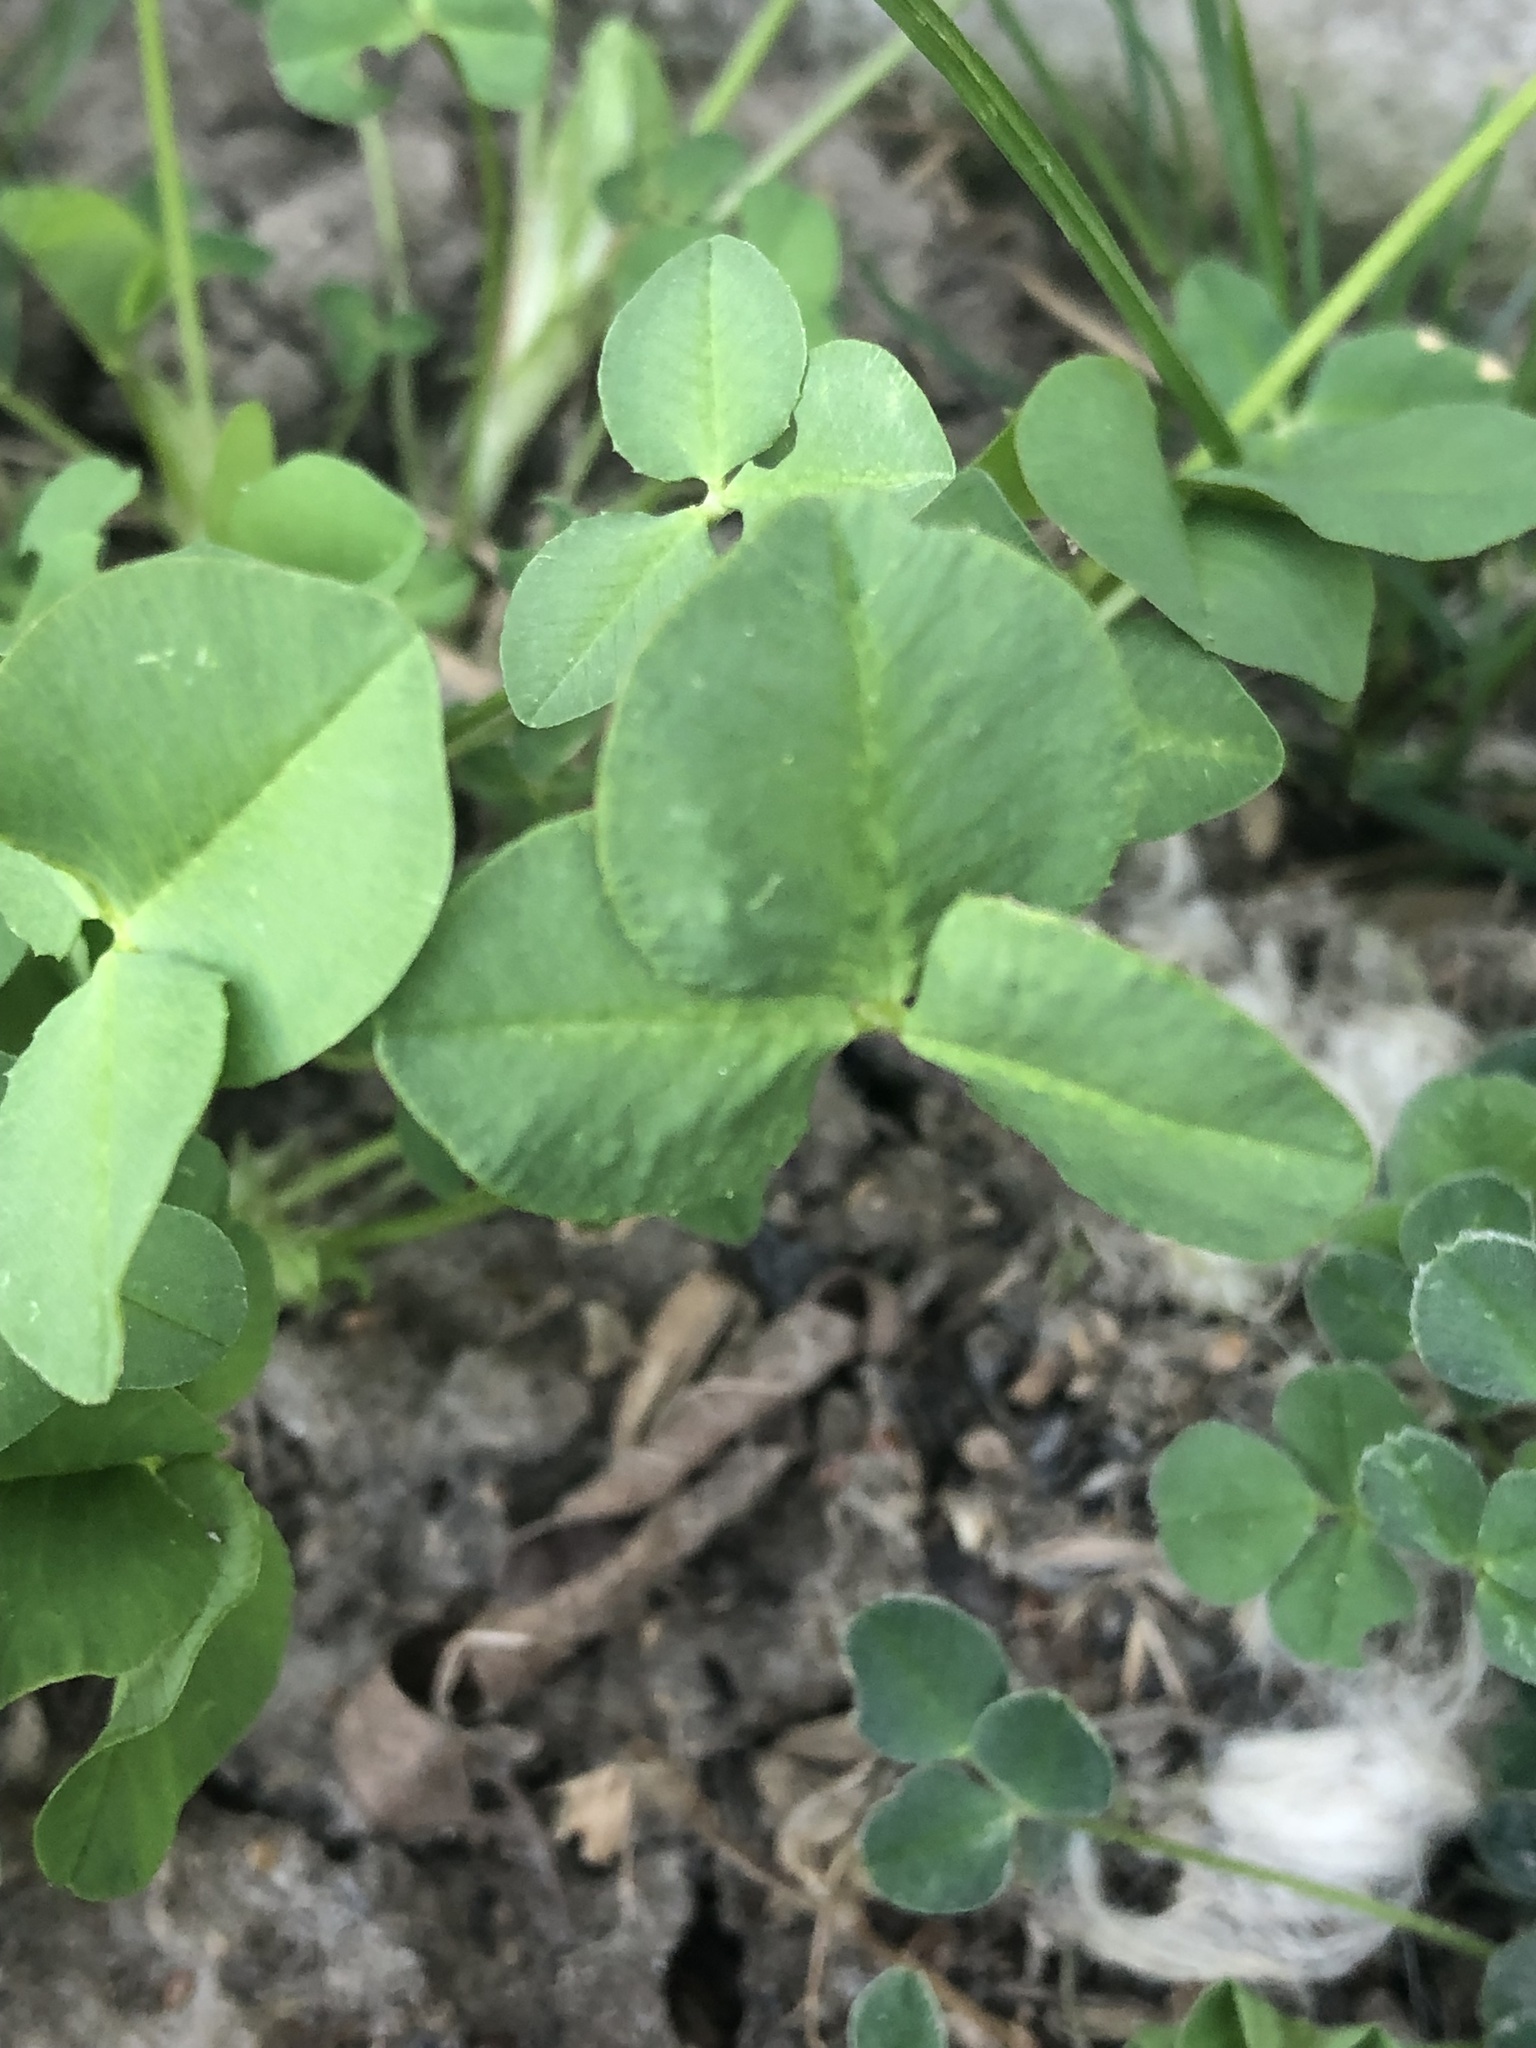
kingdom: Plantae
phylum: Tracheophyta
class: Magnoliopsida
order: Fabales
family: Fabaceae
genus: Trifolium
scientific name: Trifolium hybridum
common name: Alsike clover
